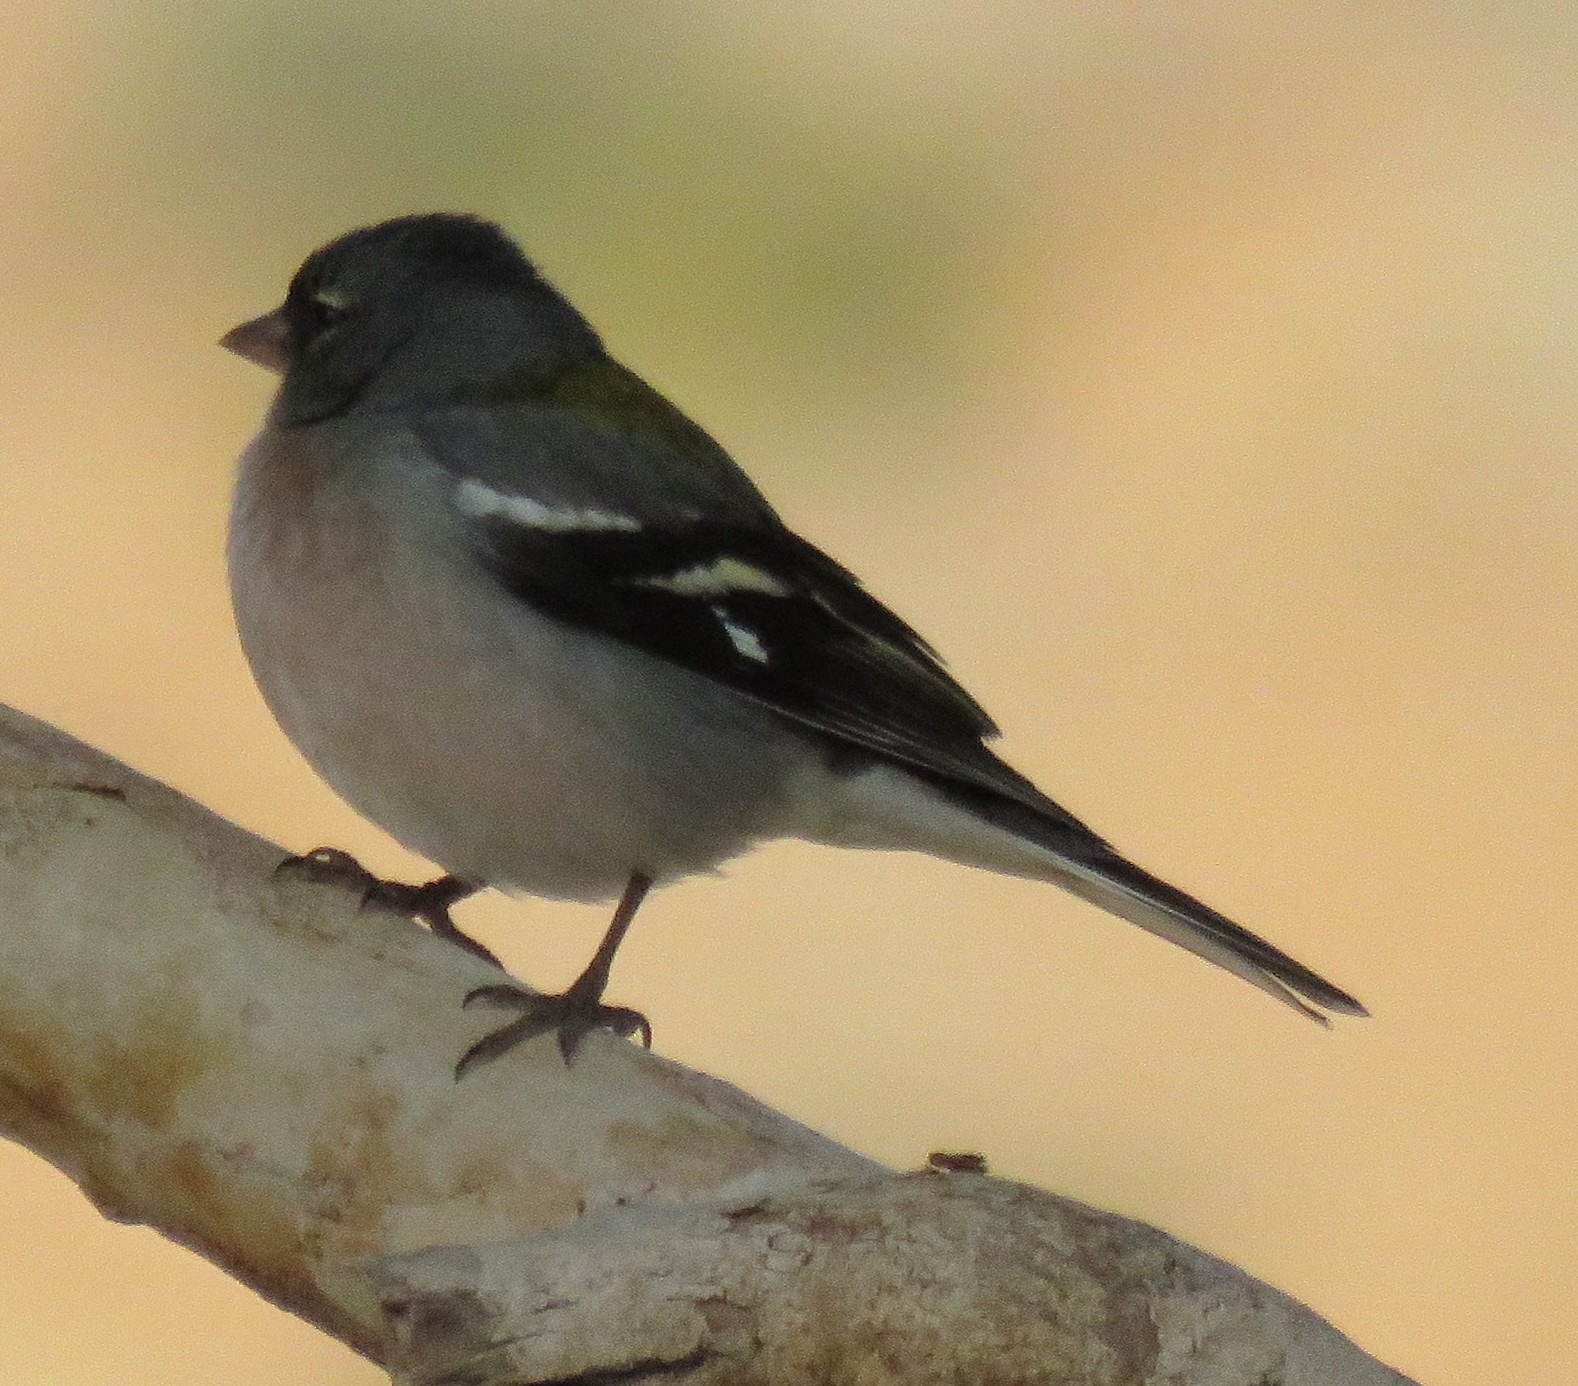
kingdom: Animalia
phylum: Chordata
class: Aves
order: Passeriformes
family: Fringillidae
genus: Fringilla
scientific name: Fringilla spodiogenys
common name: African chaffinch
